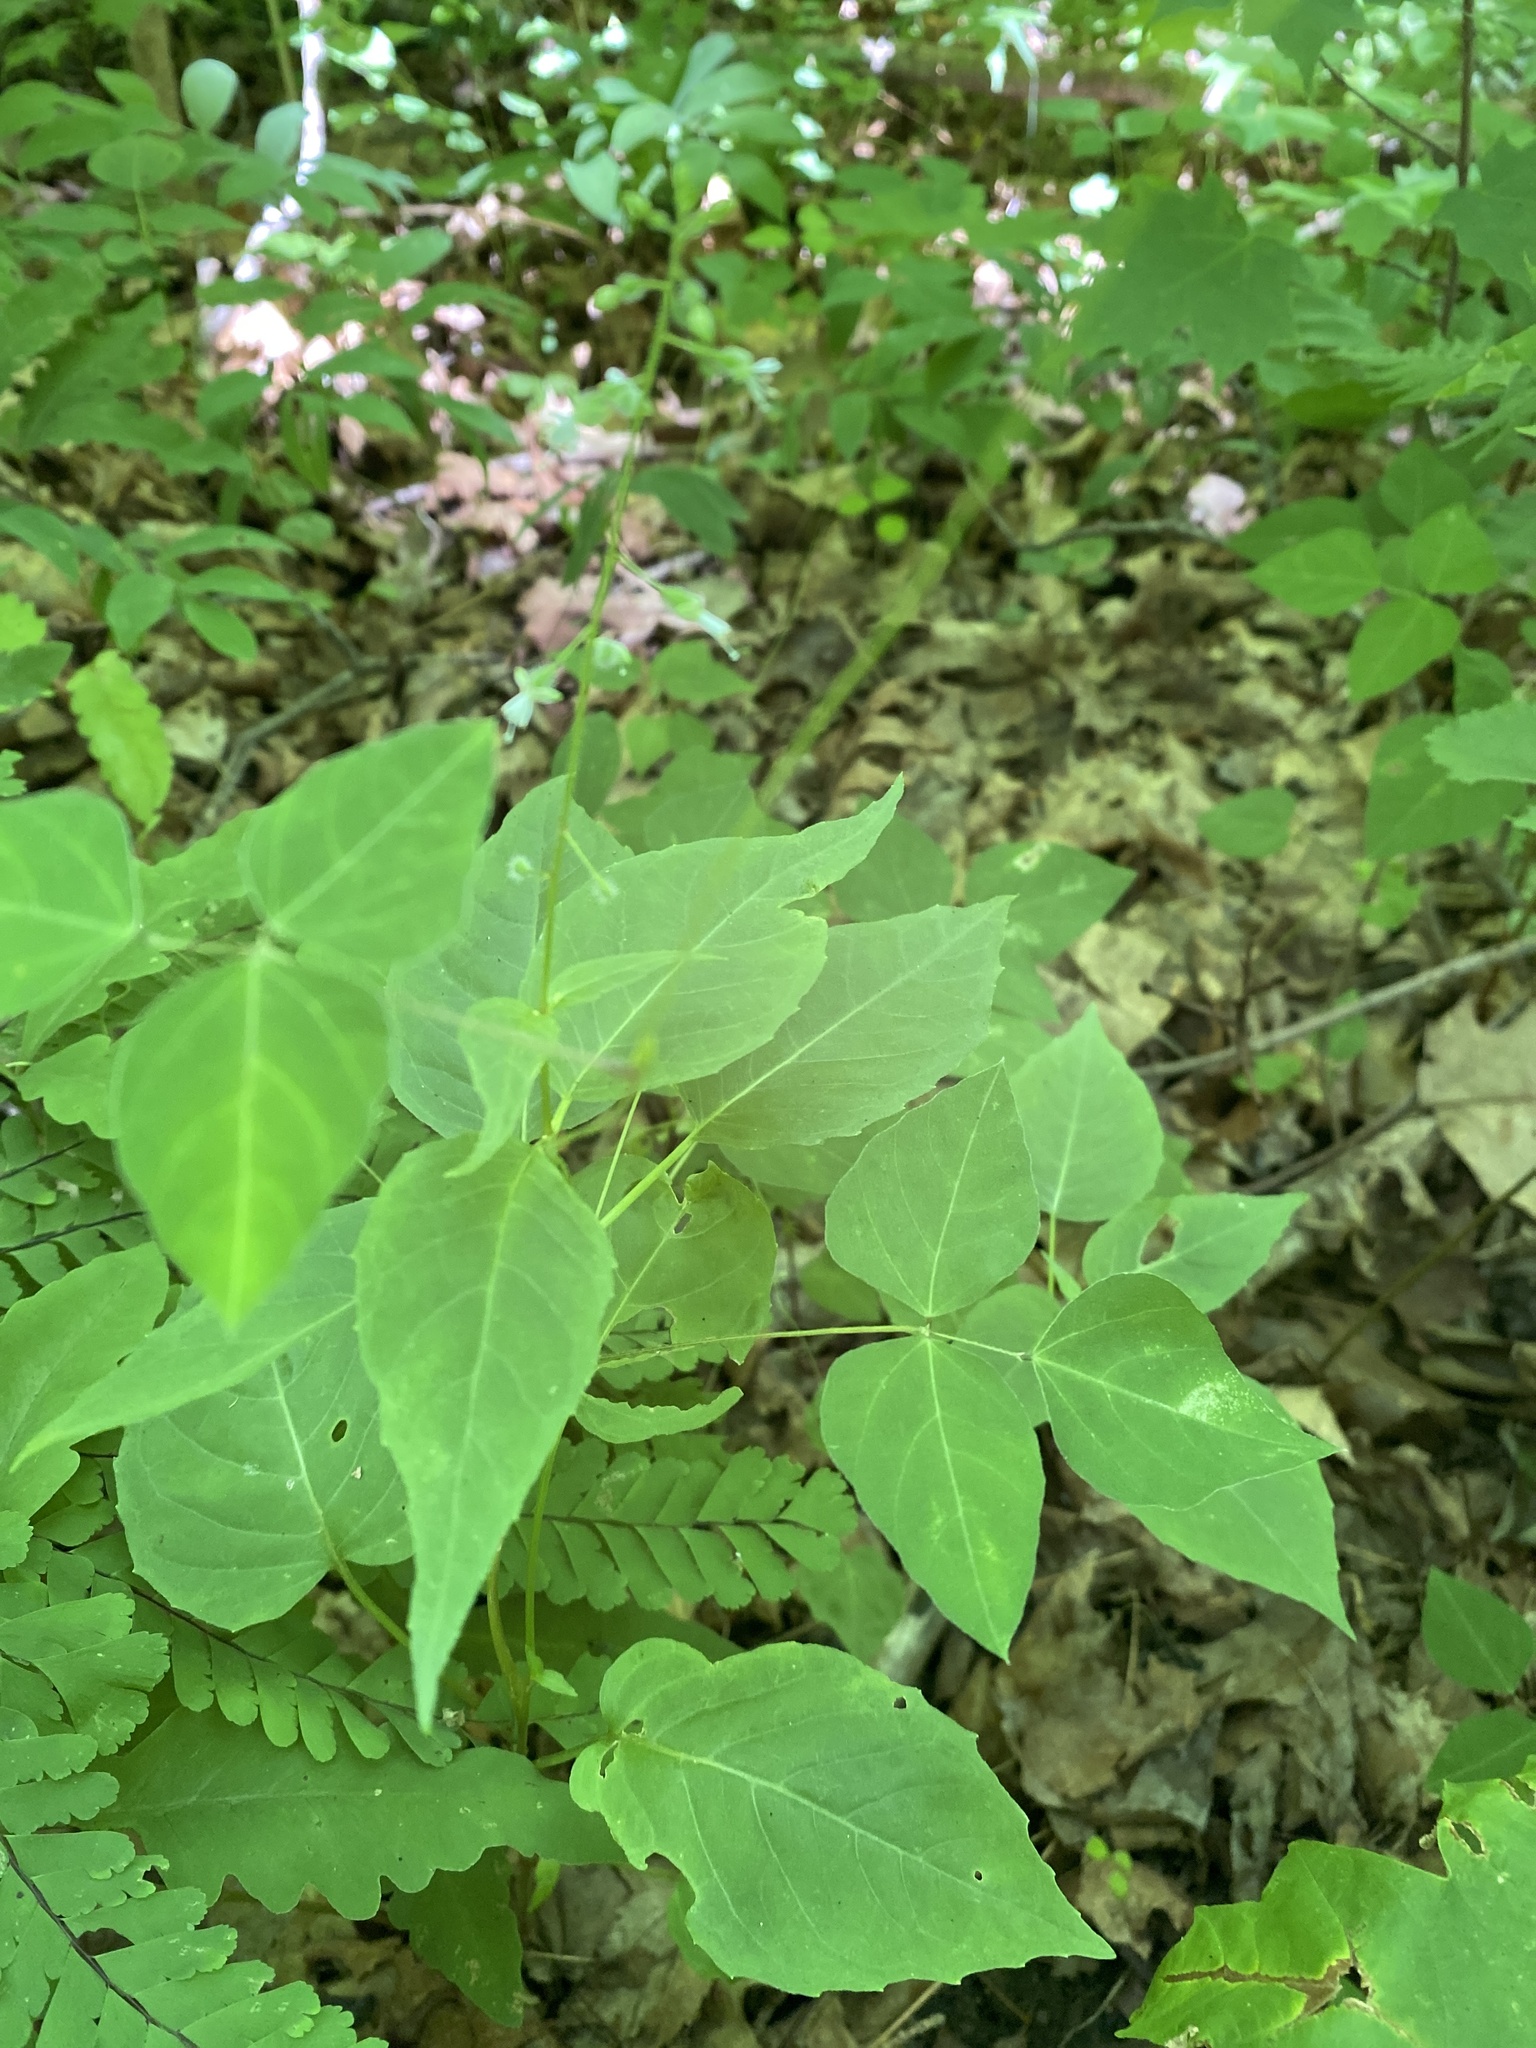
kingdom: Plantae
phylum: Tracheophyta
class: Magnoliopsida
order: Myrtales
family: Onagraceae
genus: Circaea
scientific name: Circaea canadensis
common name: Broad-leaved enchanter's nightshade
